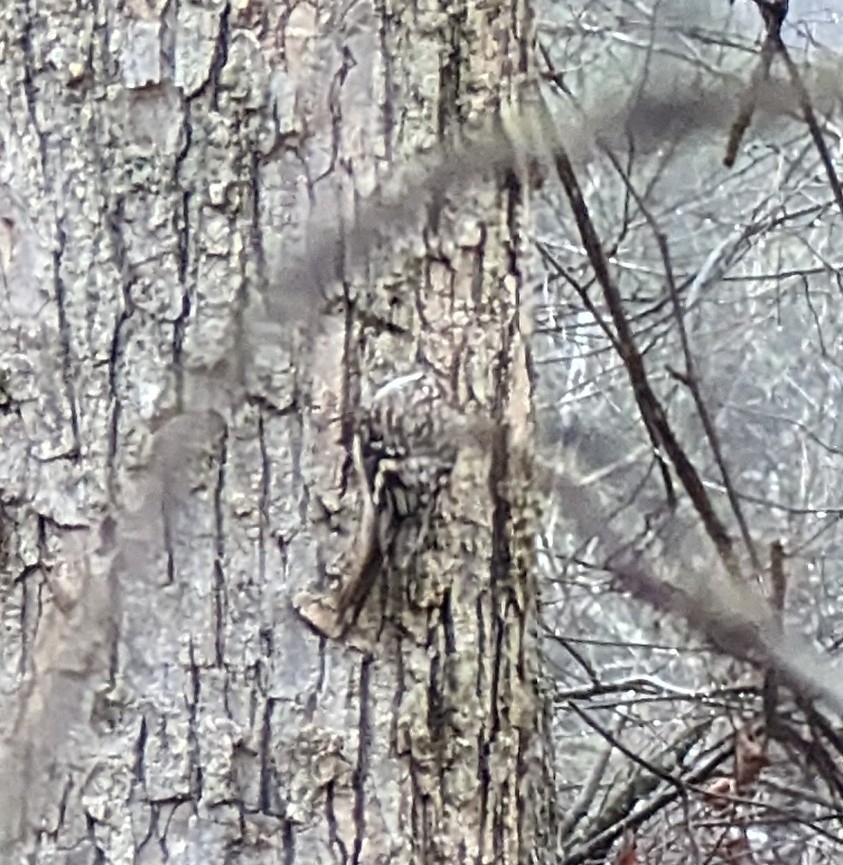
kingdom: Animalia
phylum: Chordata
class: Aves
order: Passeriformes
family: Certhiidae
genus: Certhia
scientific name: Certhia americana
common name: Brown creeper
